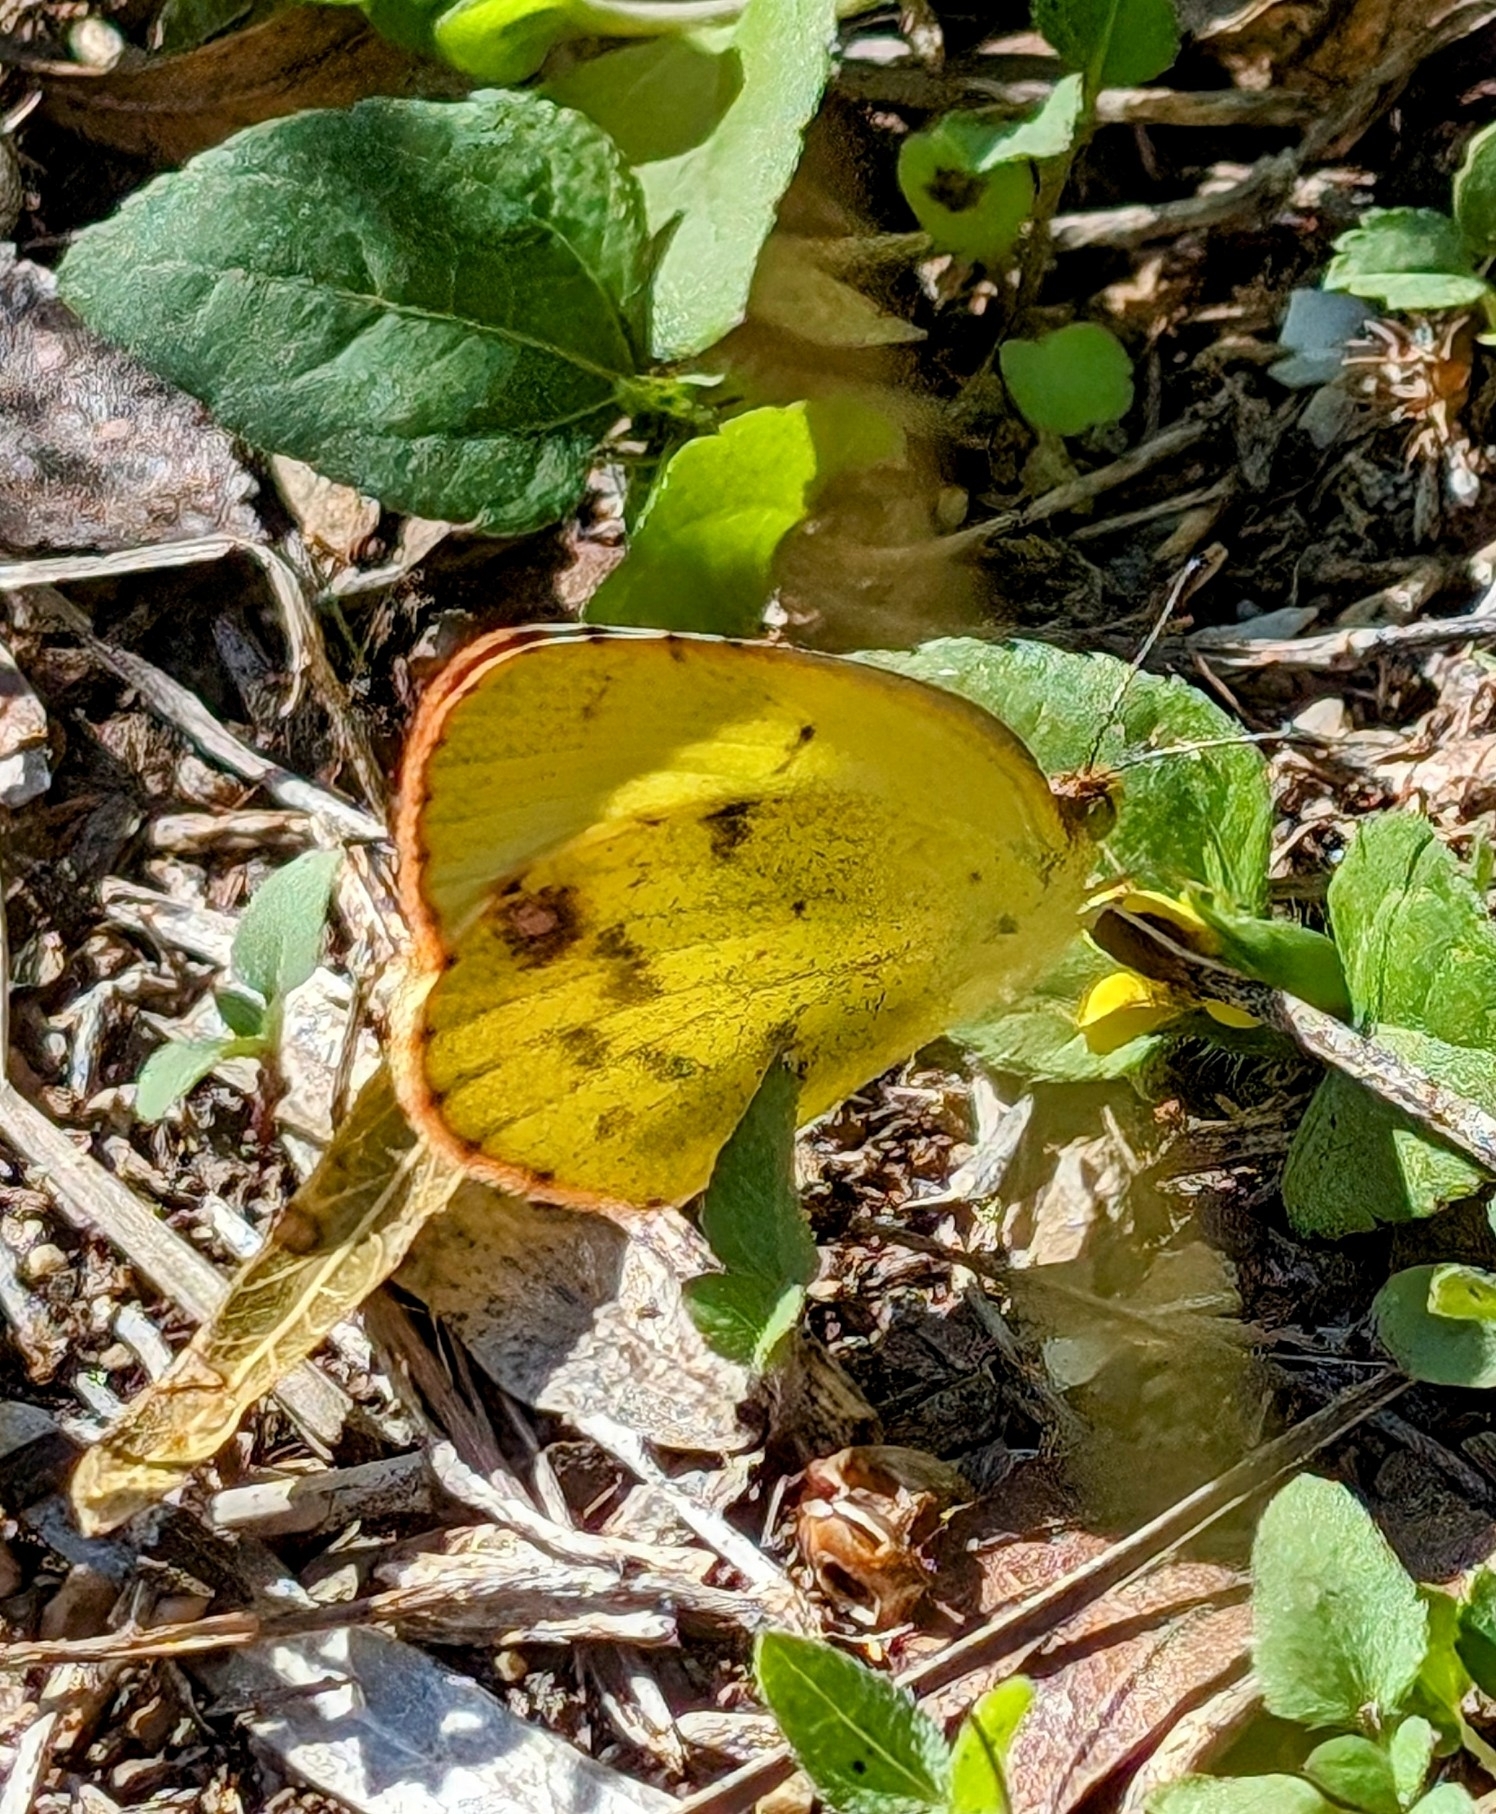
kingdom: Animalia
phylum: Arthropoda
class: Insecta
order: Lepidoptera
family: Pieridae
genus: Pyrisitia
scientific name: Pyrisitia lisa
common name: Little yellow
